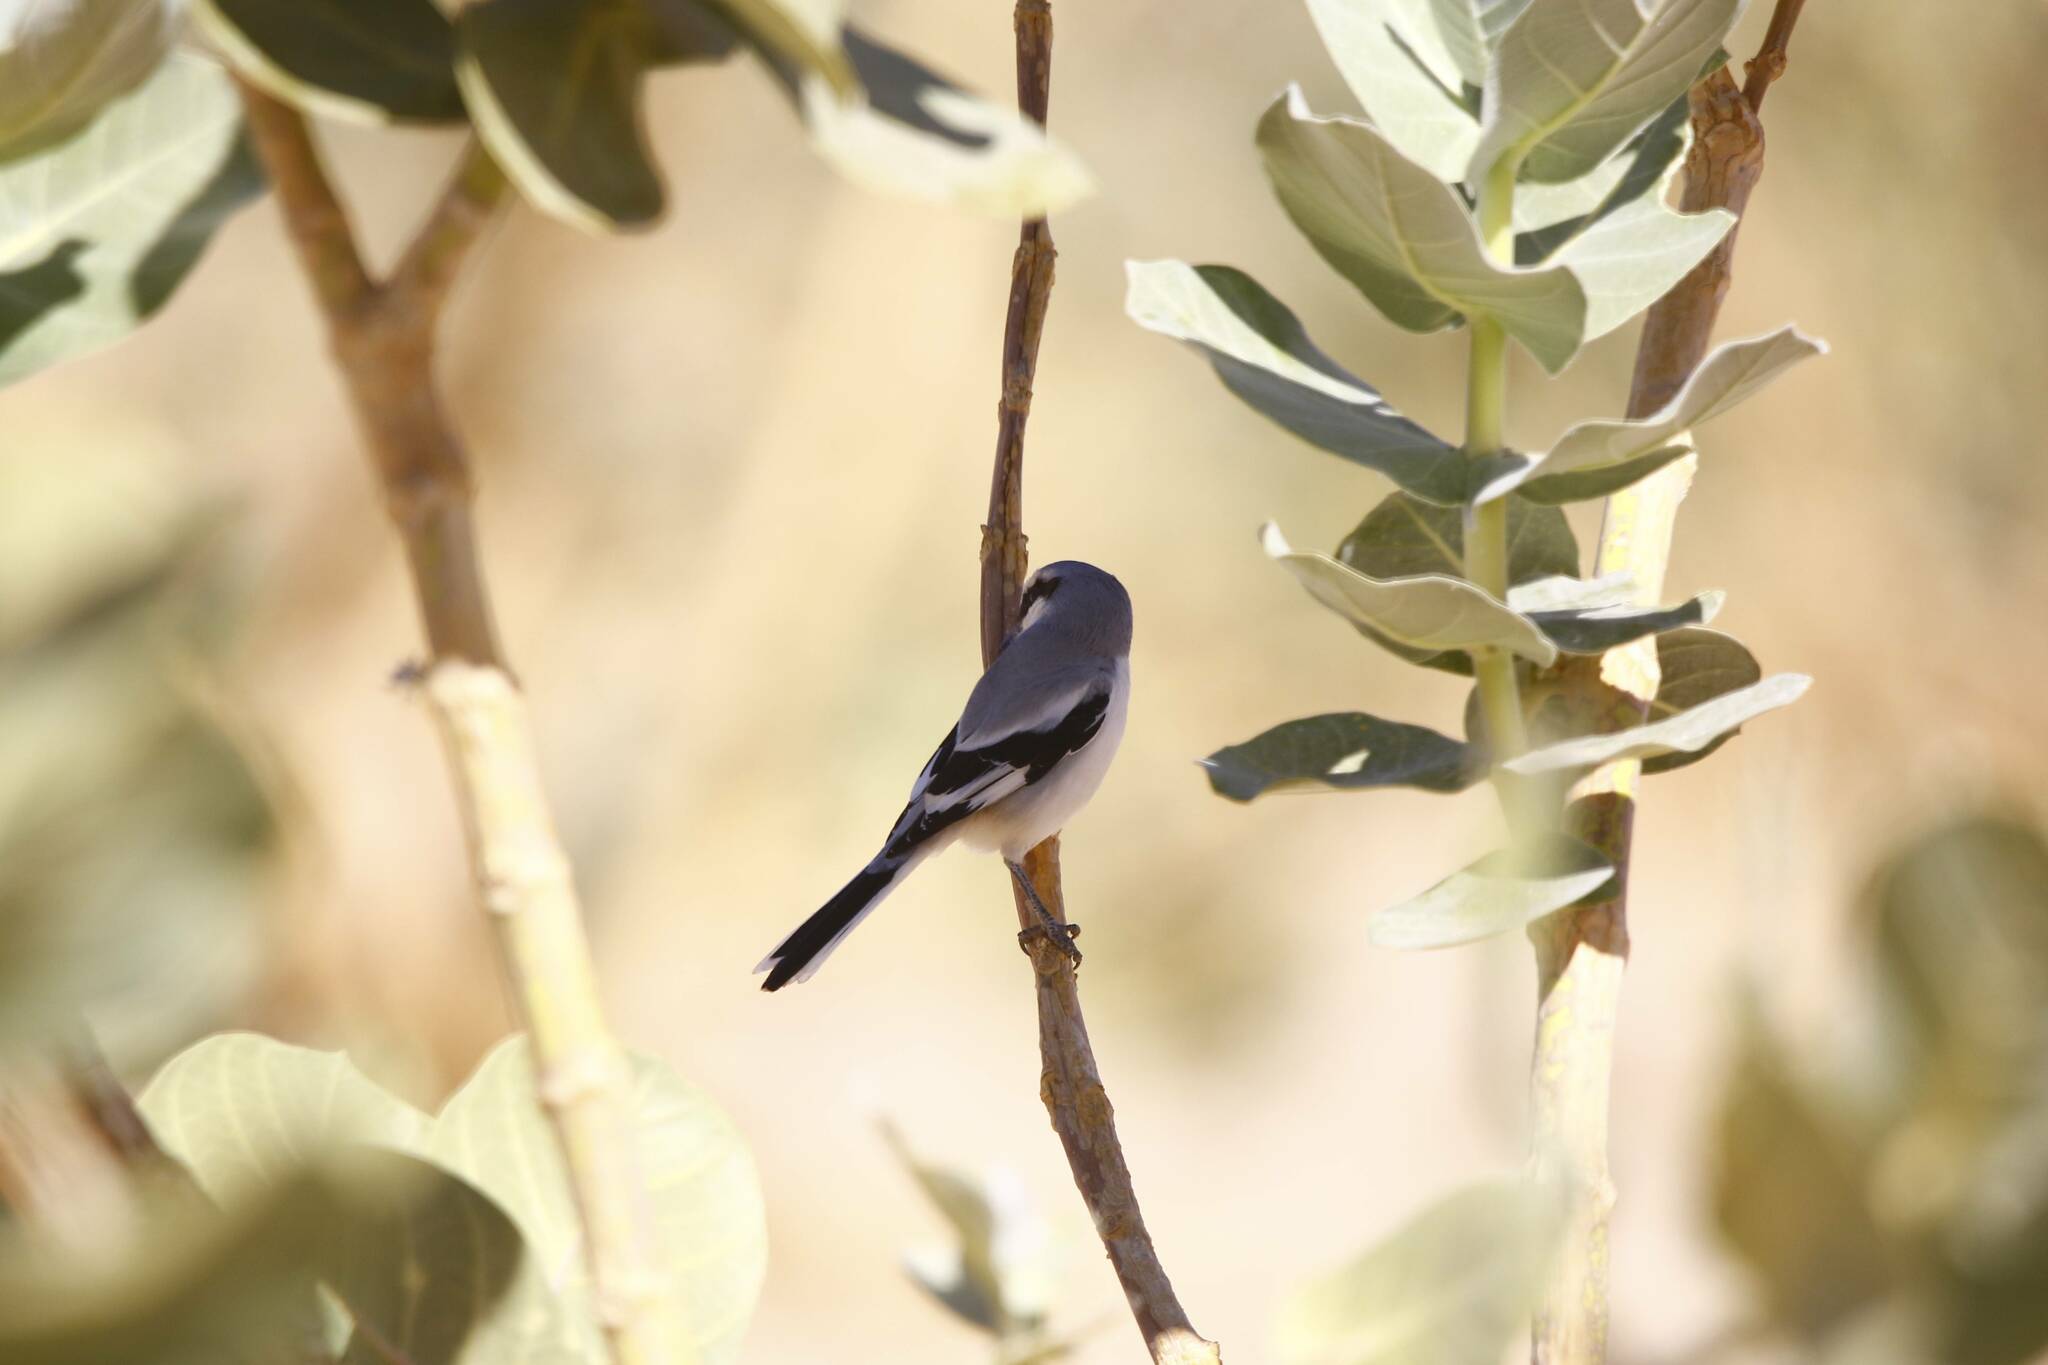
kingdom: Animalia
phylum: Chordata
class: Aves
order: Passeriformes
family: Laniidae
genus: Lanius
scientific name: Lanius excubitor
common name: Great grey shrike
